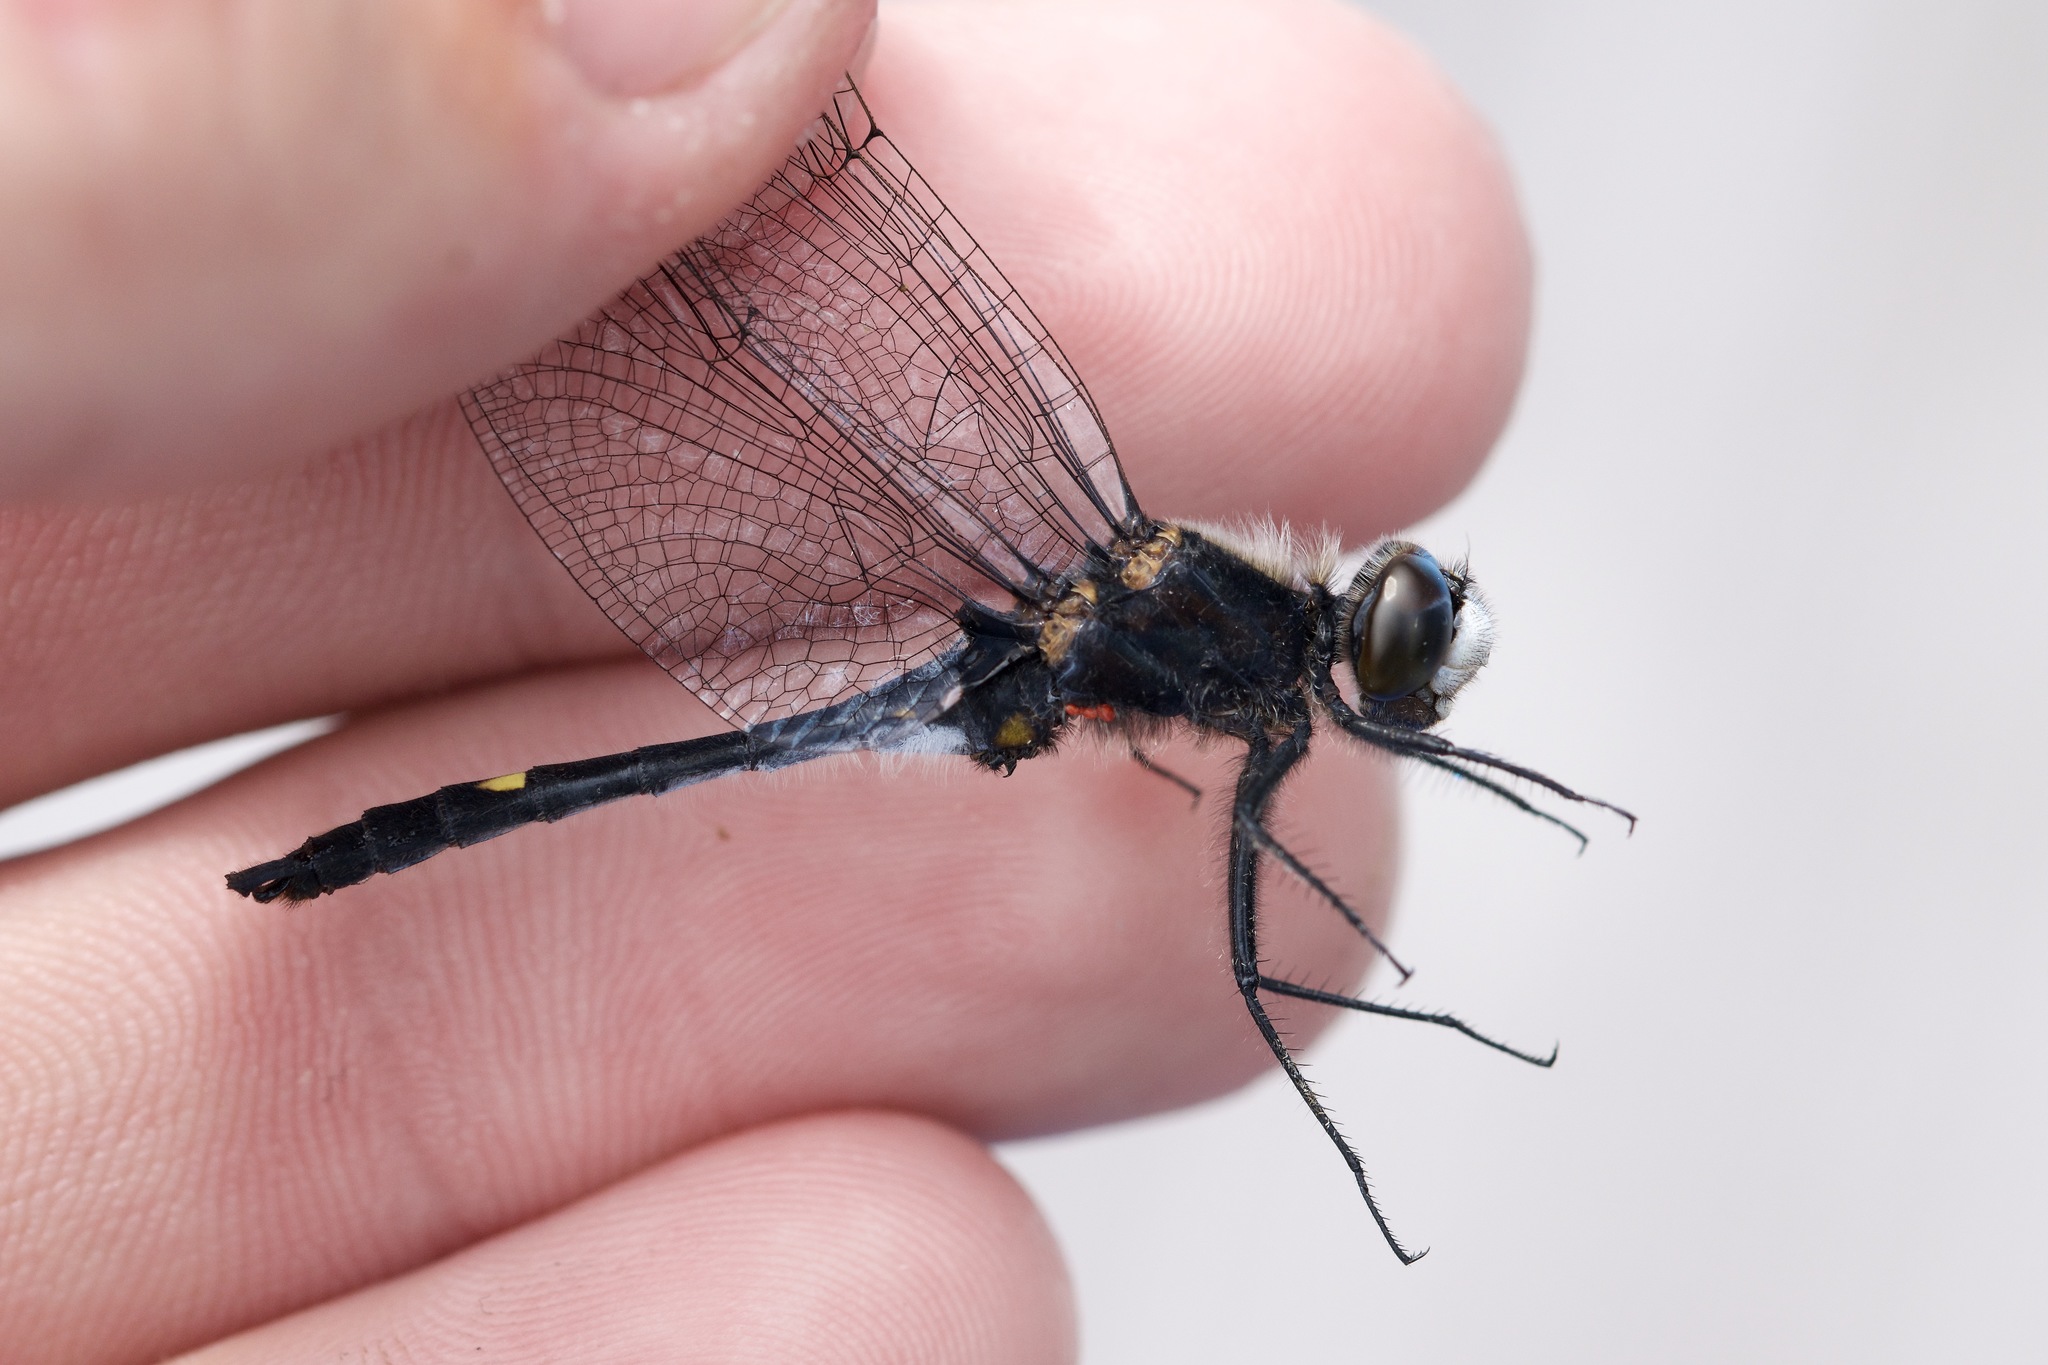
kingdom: Animalia
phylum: Arthropoda
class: Insecta
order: Odonata
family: Libellulidae
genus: Leucorrhinia
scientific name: Leucorrhinia intacta
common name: Dot-tailed whiteface
